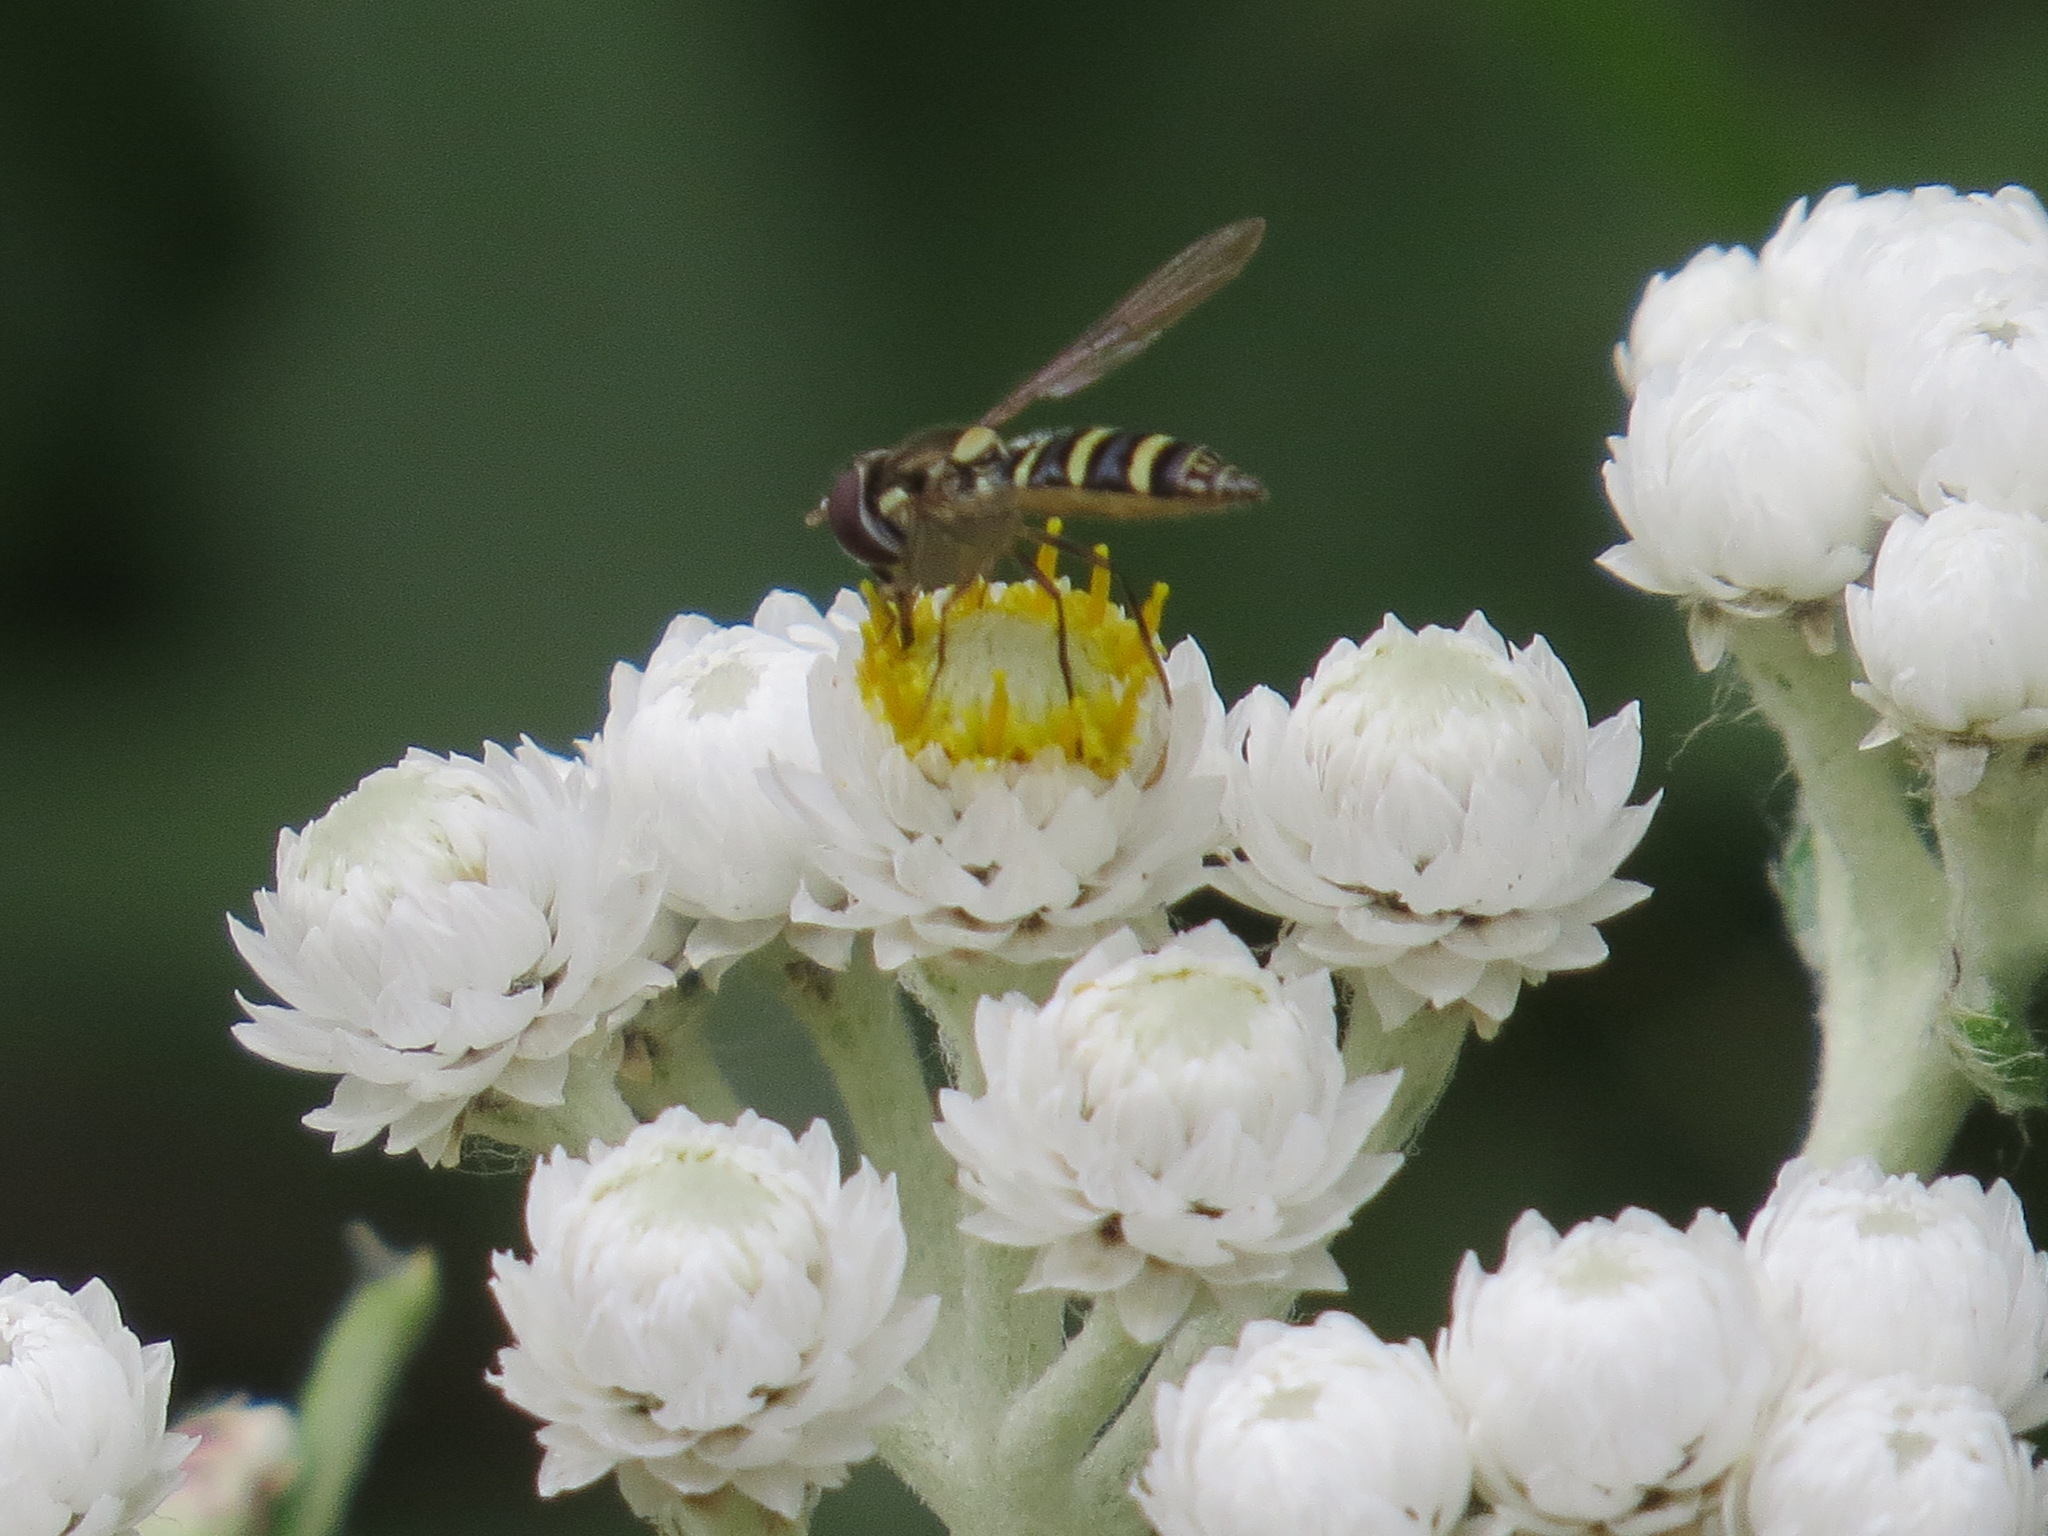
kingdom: Animalia
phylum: Arthropoda
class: Insecta
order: Diptera
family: Syrphidae
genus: Fazia
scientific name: Fazia micrura
